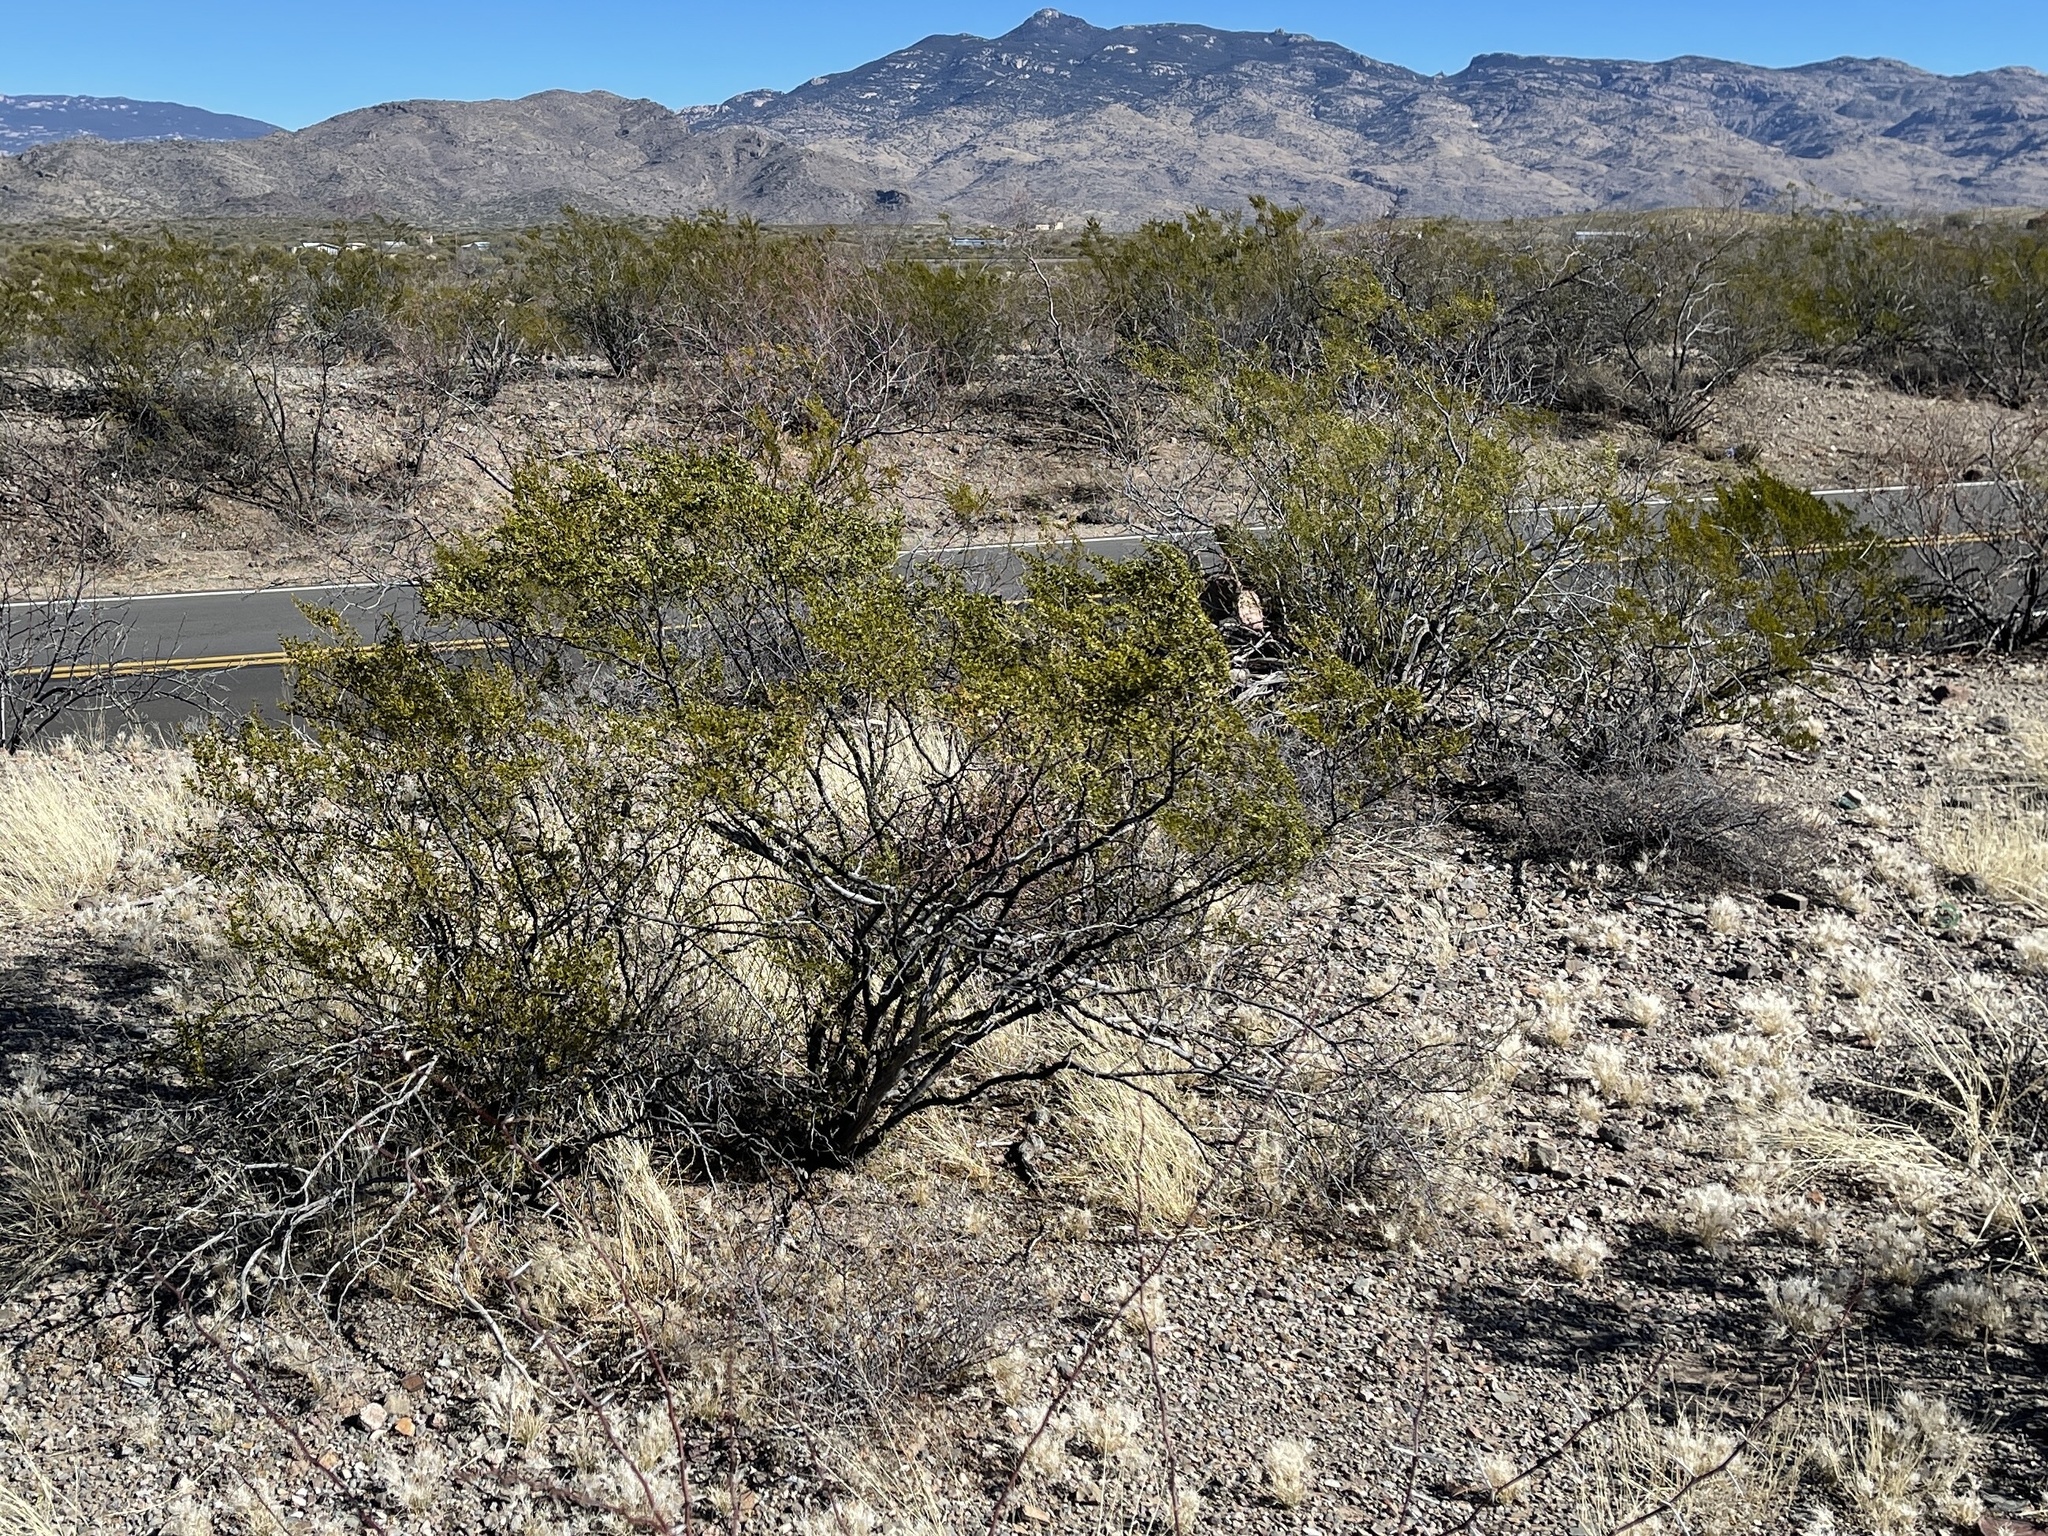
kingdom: Plantae
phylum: Tracheophyta
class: Magnoliopsida
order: Zygophyllales
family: Zygophyllaceae
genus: Larrea
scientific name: Larrea tridentata
